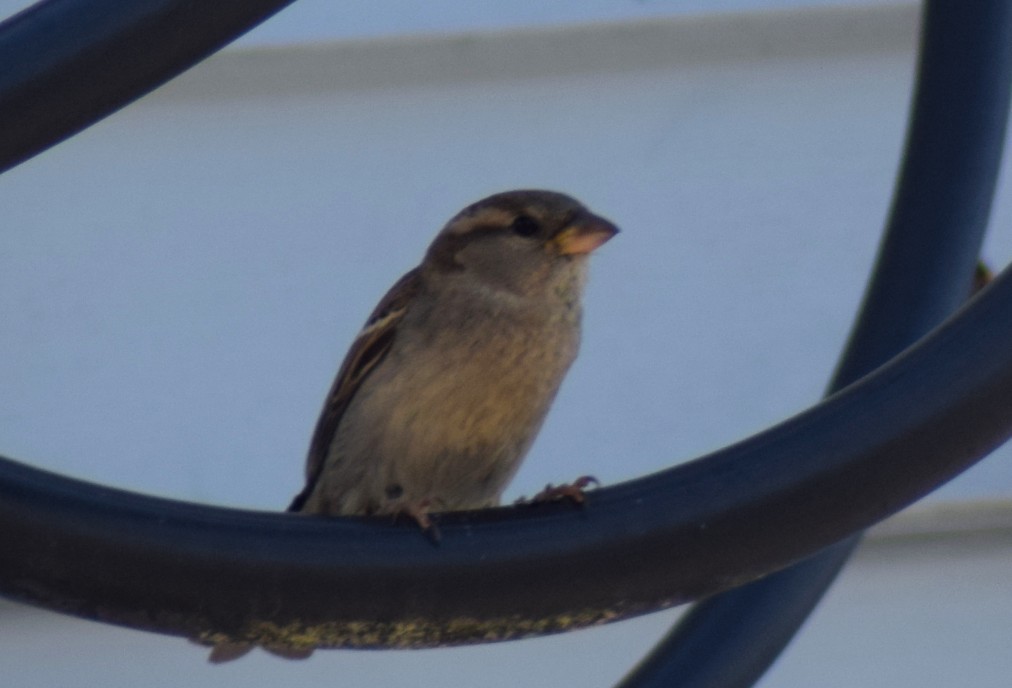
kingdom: Animalia
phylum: Chordata
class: Aves
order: Passeriformes
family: Passeridae
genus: Passer
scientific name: Passer domesticus
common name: House sparrow
